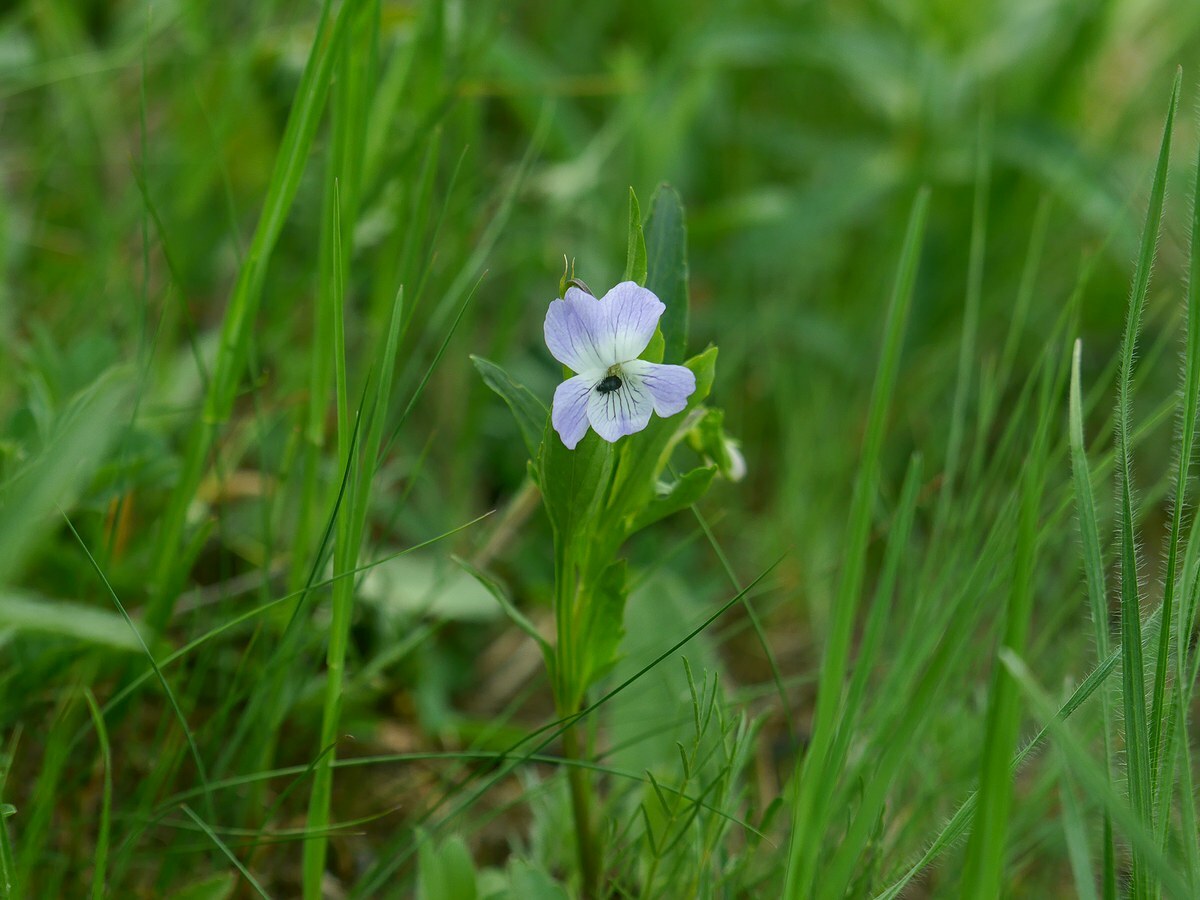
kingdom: Plantae
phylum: Tracheophyta
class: Magnoliopsida
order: Malpighiales
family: Violaceae
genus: Viola
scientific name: Viola pumila
